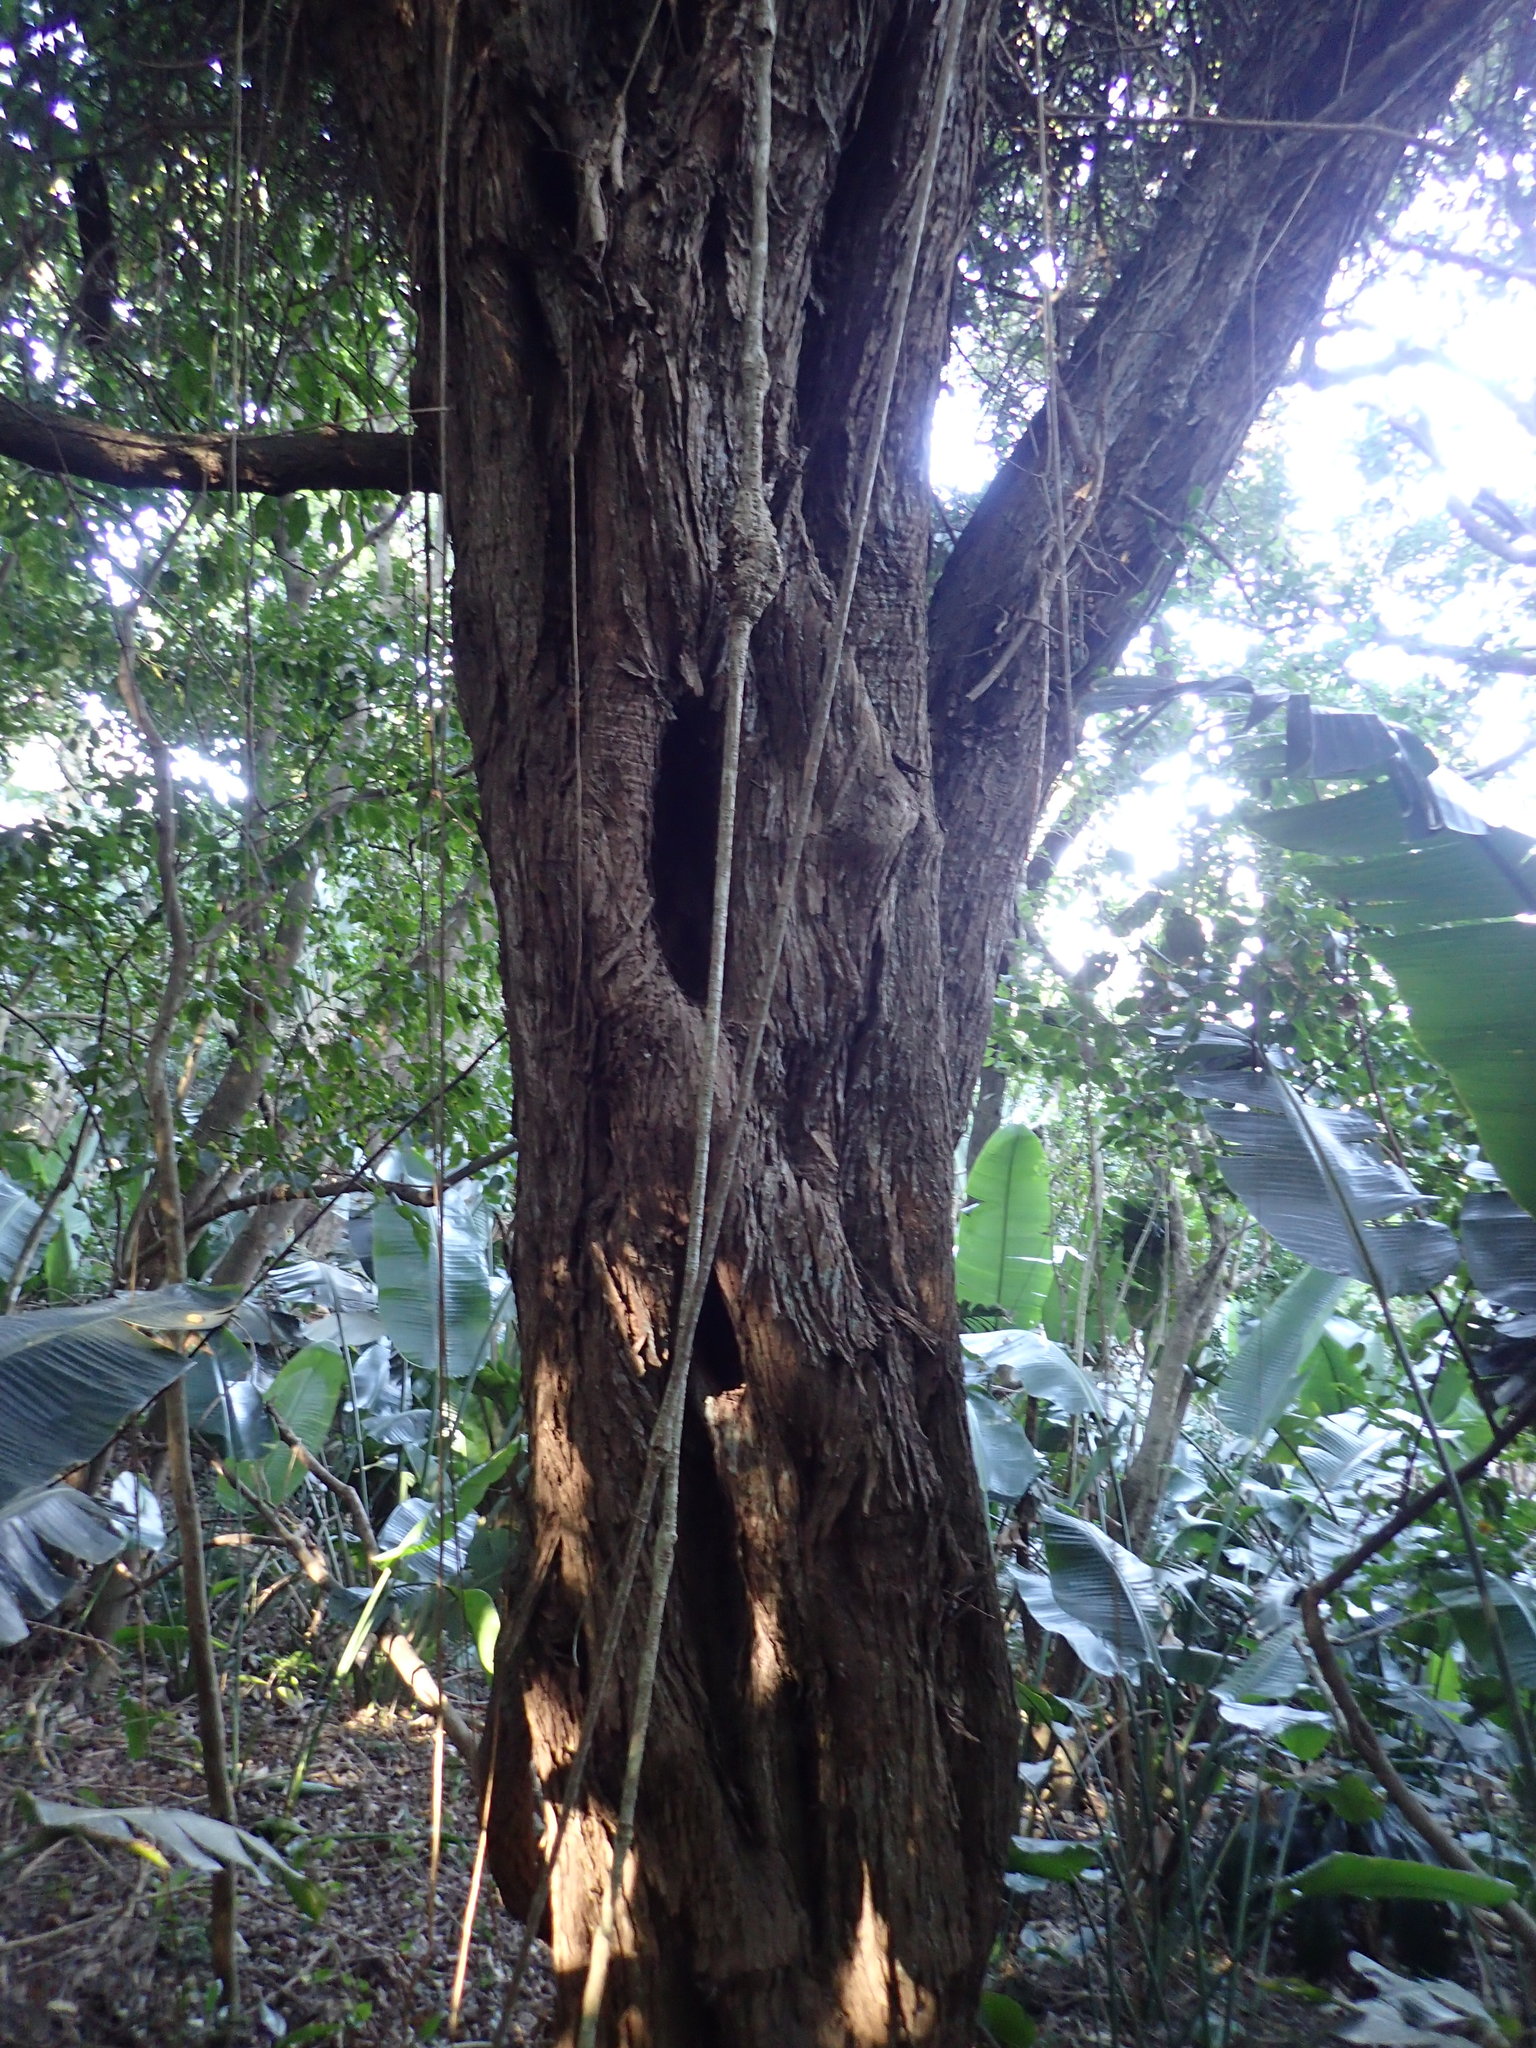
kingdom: Plantae
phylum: Tracheophyta
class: Magnoliopsida
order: Gentianales
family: Rubiaceae
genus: Psydrax
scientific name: Psydrax obovatus
